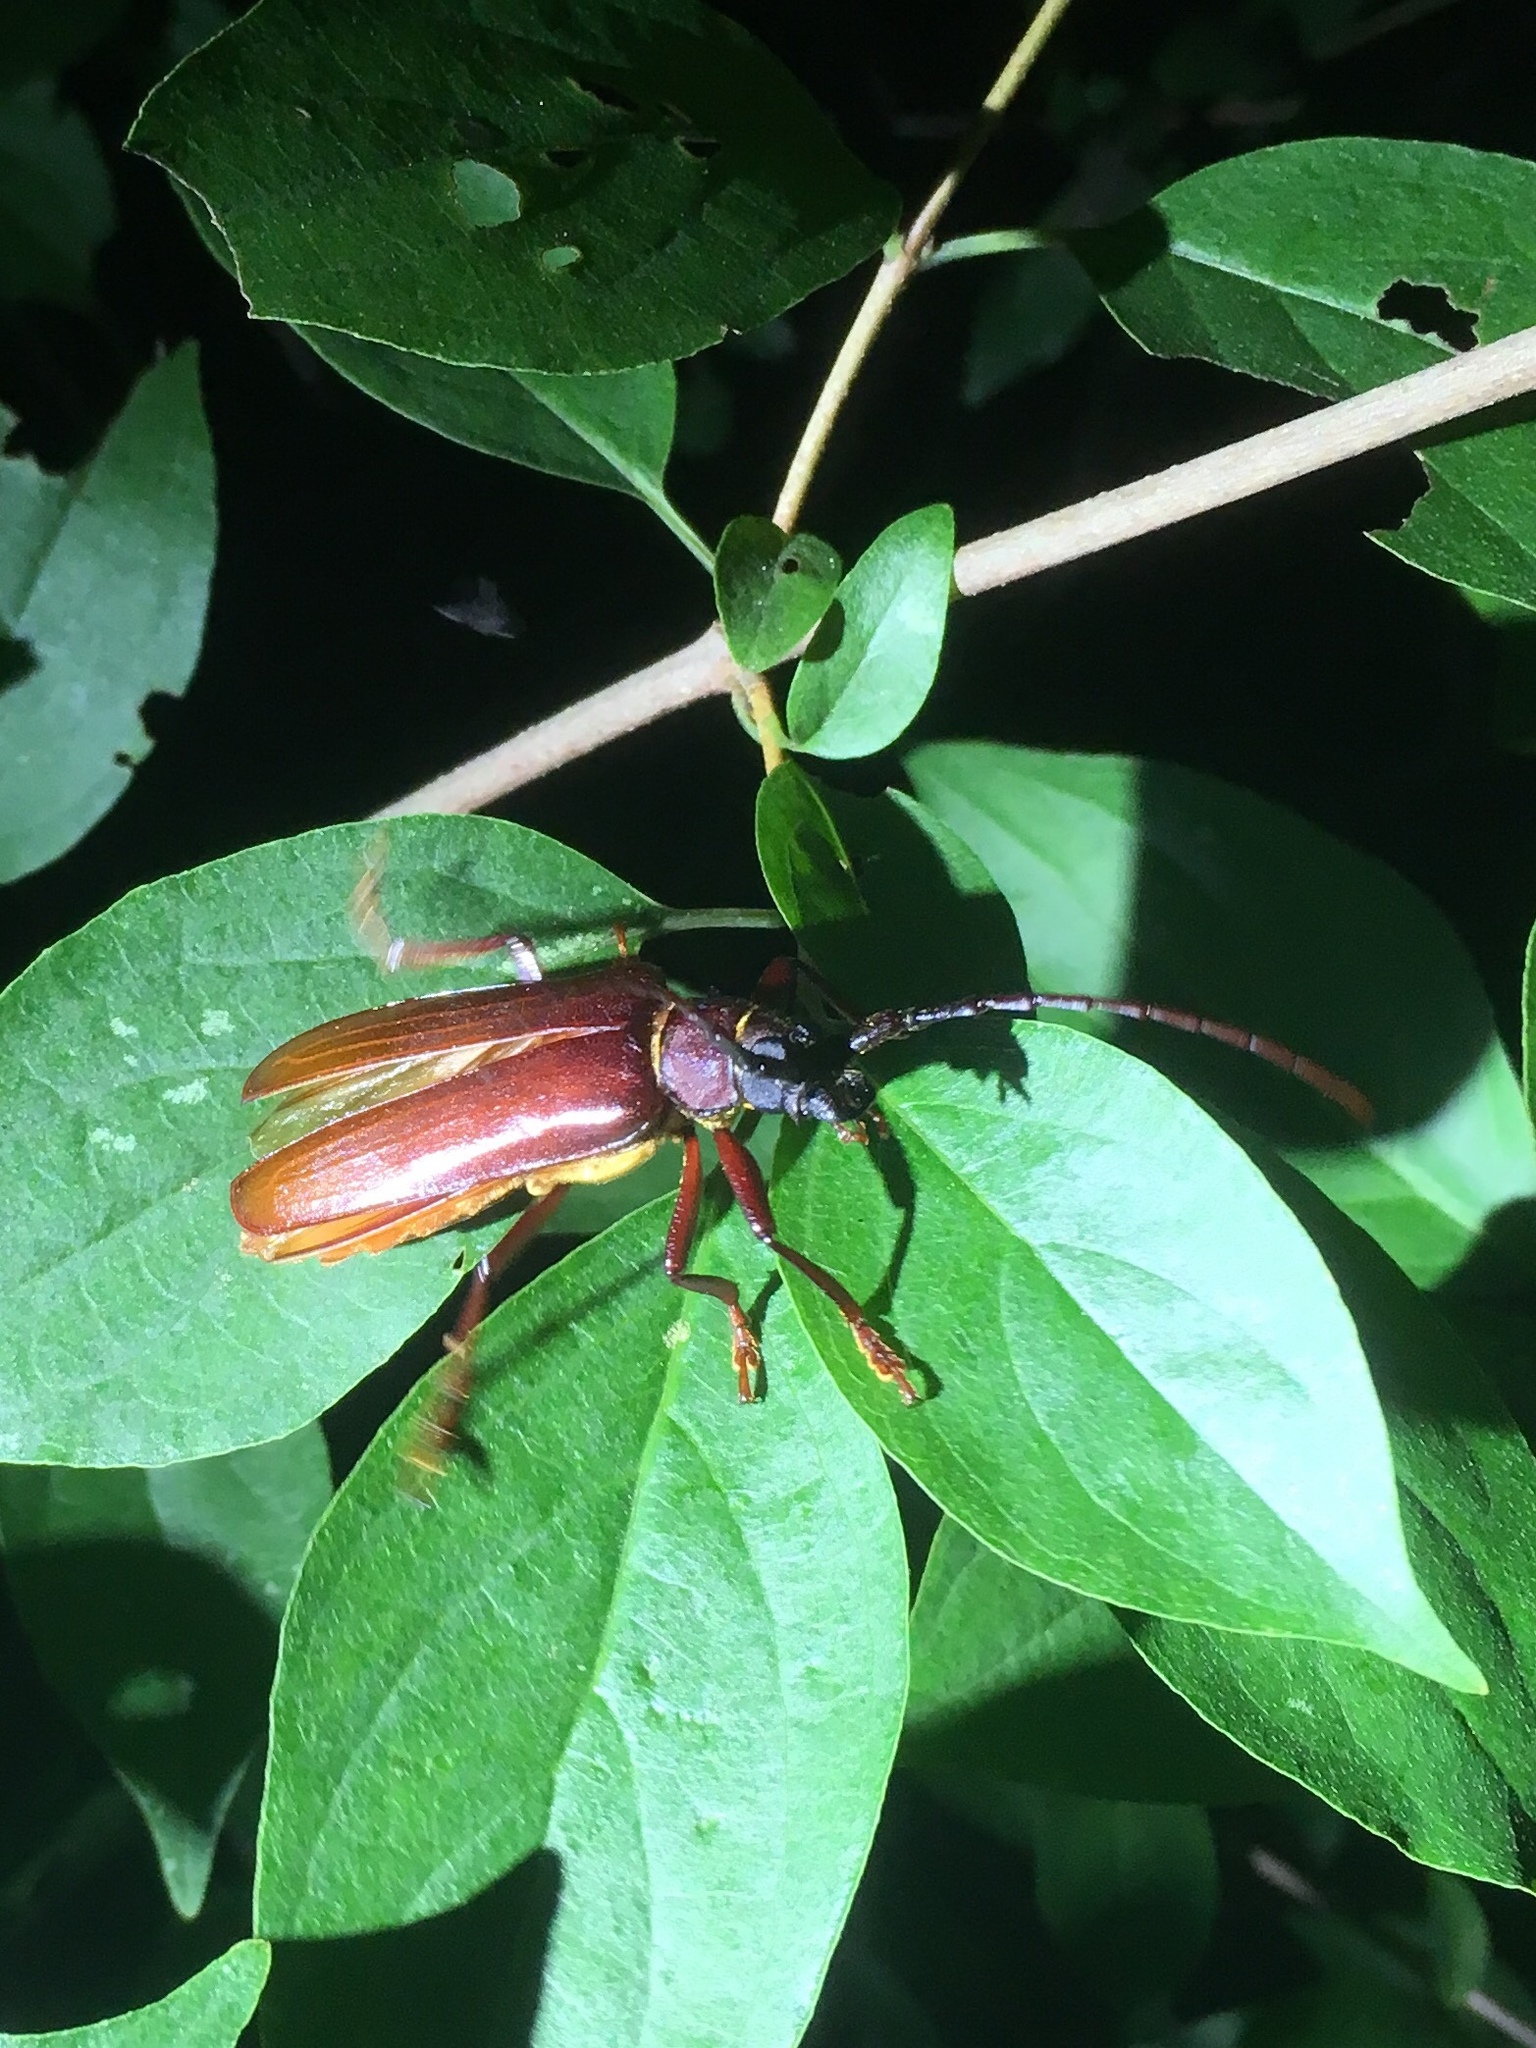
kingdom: Animalia
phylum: Arthropoda
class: Insecta
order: Coleoptera
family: Cerambycidae
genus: Orthosoma
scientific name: Orthosoma brunneum
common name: Brown prionid beetle
